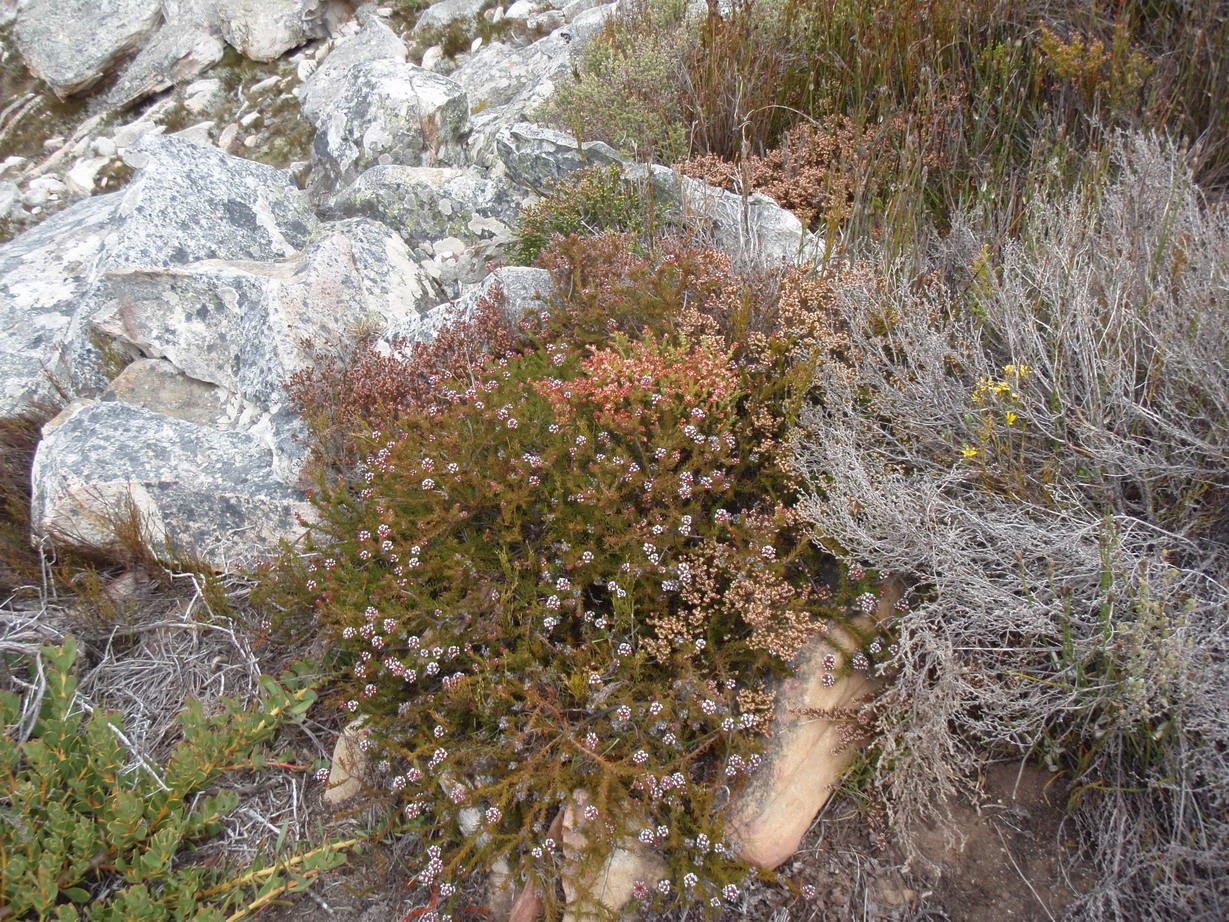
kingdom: Plantae
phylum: Tracheophyta
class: Magnoliopsida
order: Proteales
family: Proteaceae
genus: Spatalla
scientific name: Spatalla confusa
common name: Long-tube spoon
